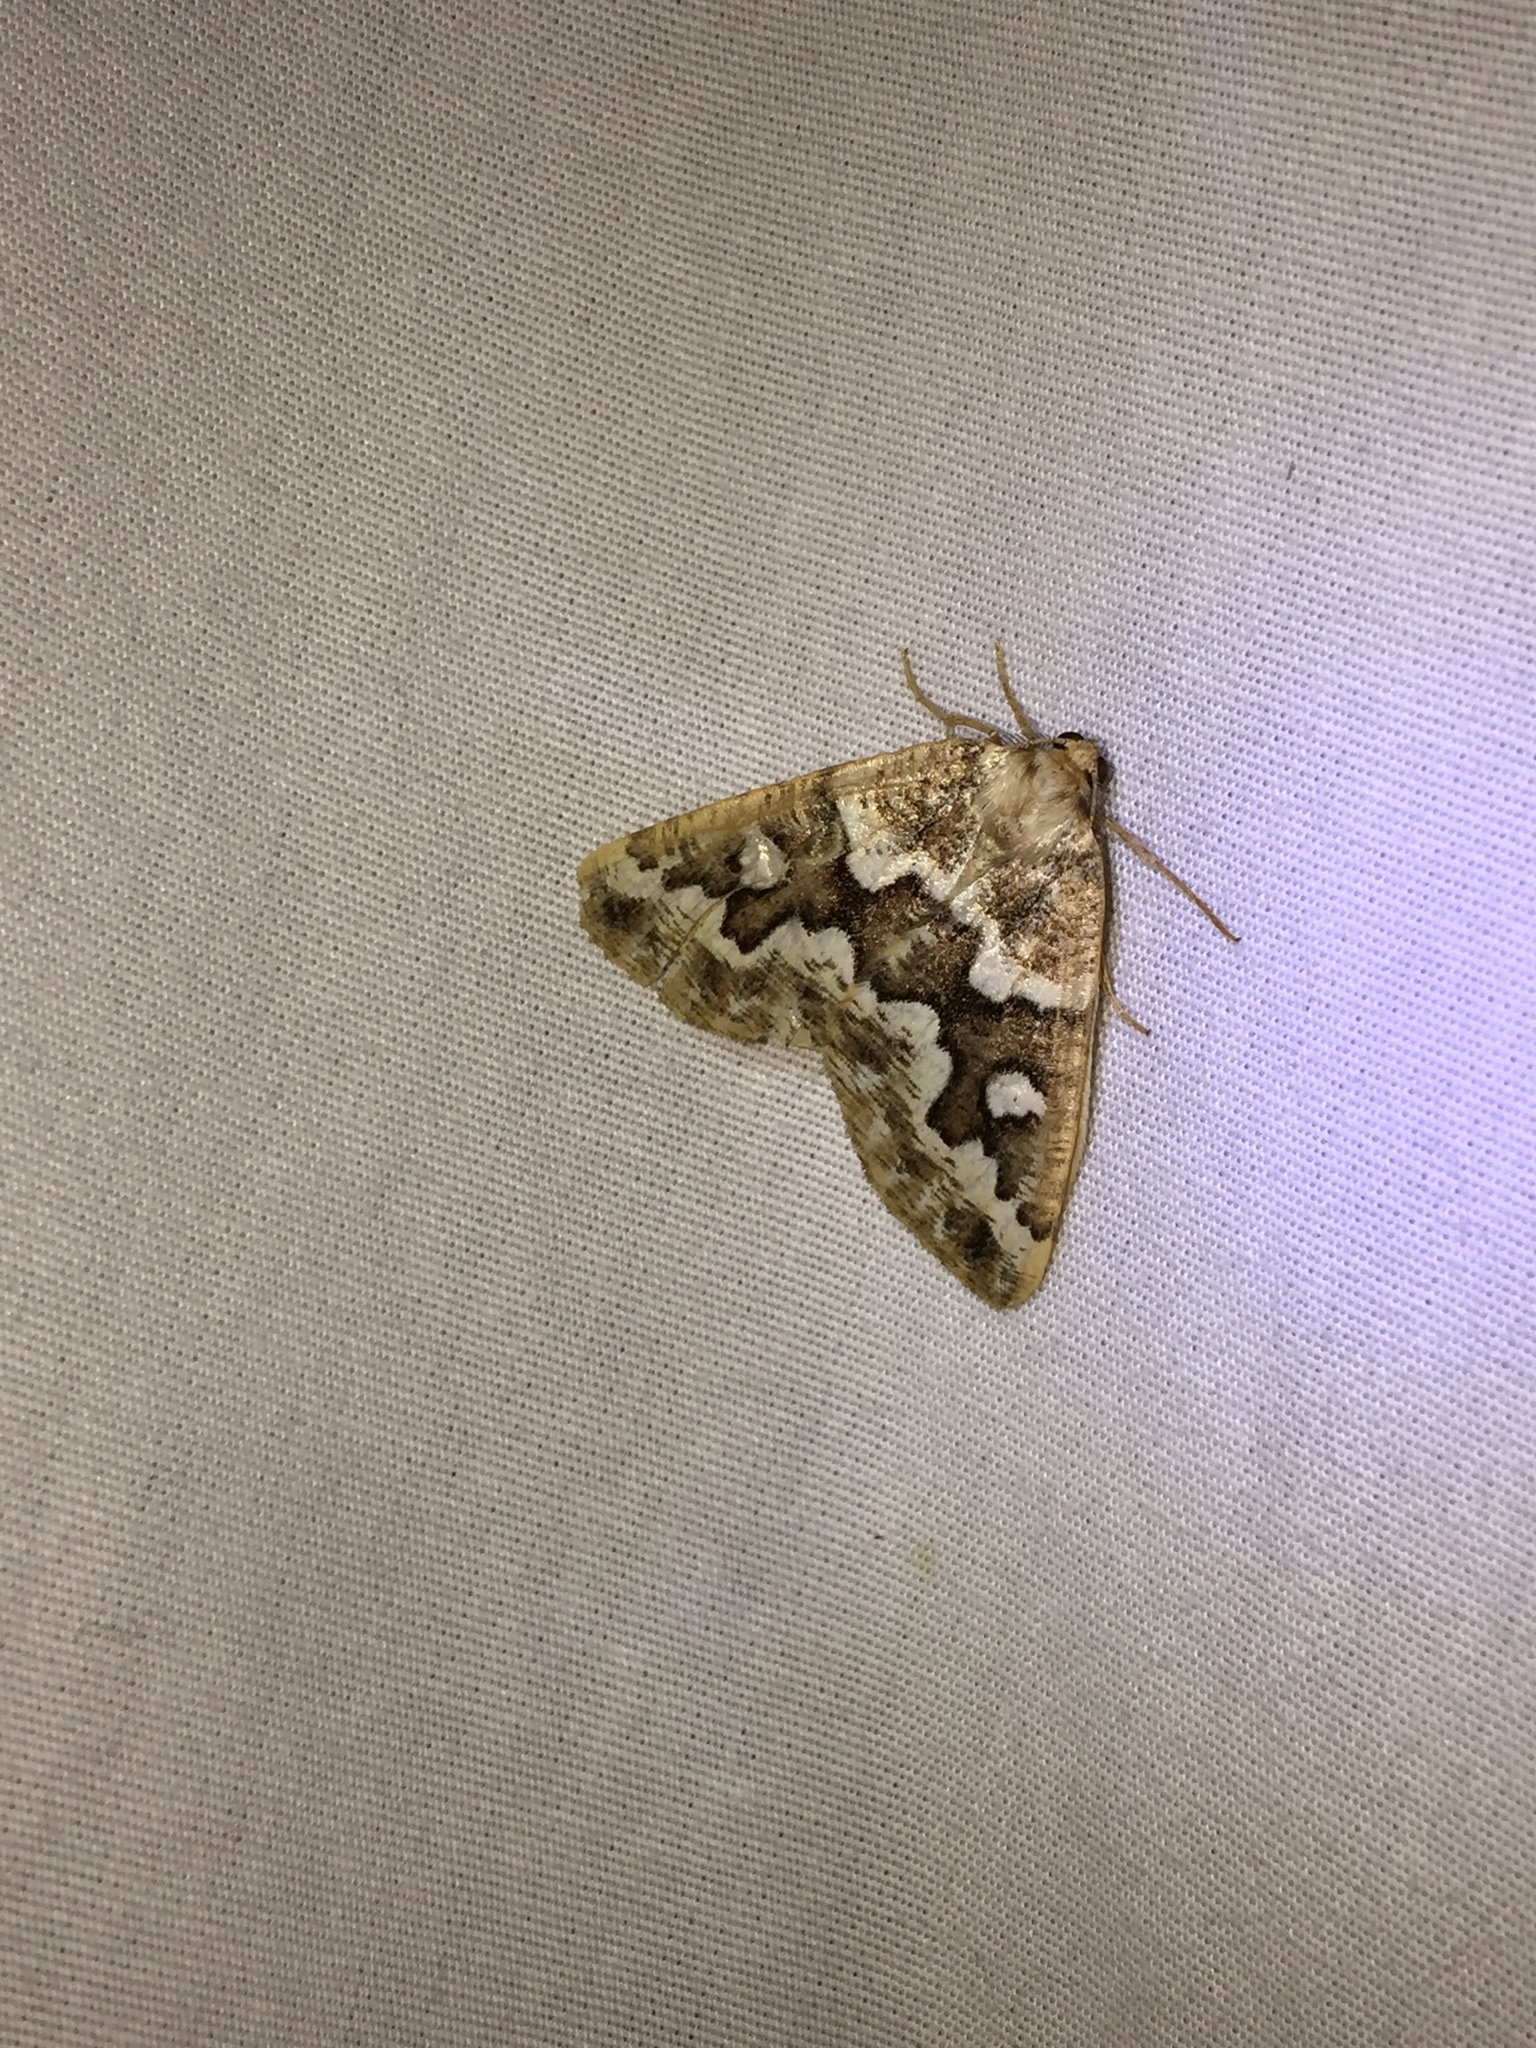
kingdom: Animalia
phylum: Arthropoda
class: Insecta
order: Lepidoptera
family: Geometridae
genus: Caripeta
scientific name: Caripeta divisata
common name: Gray spruce looper
